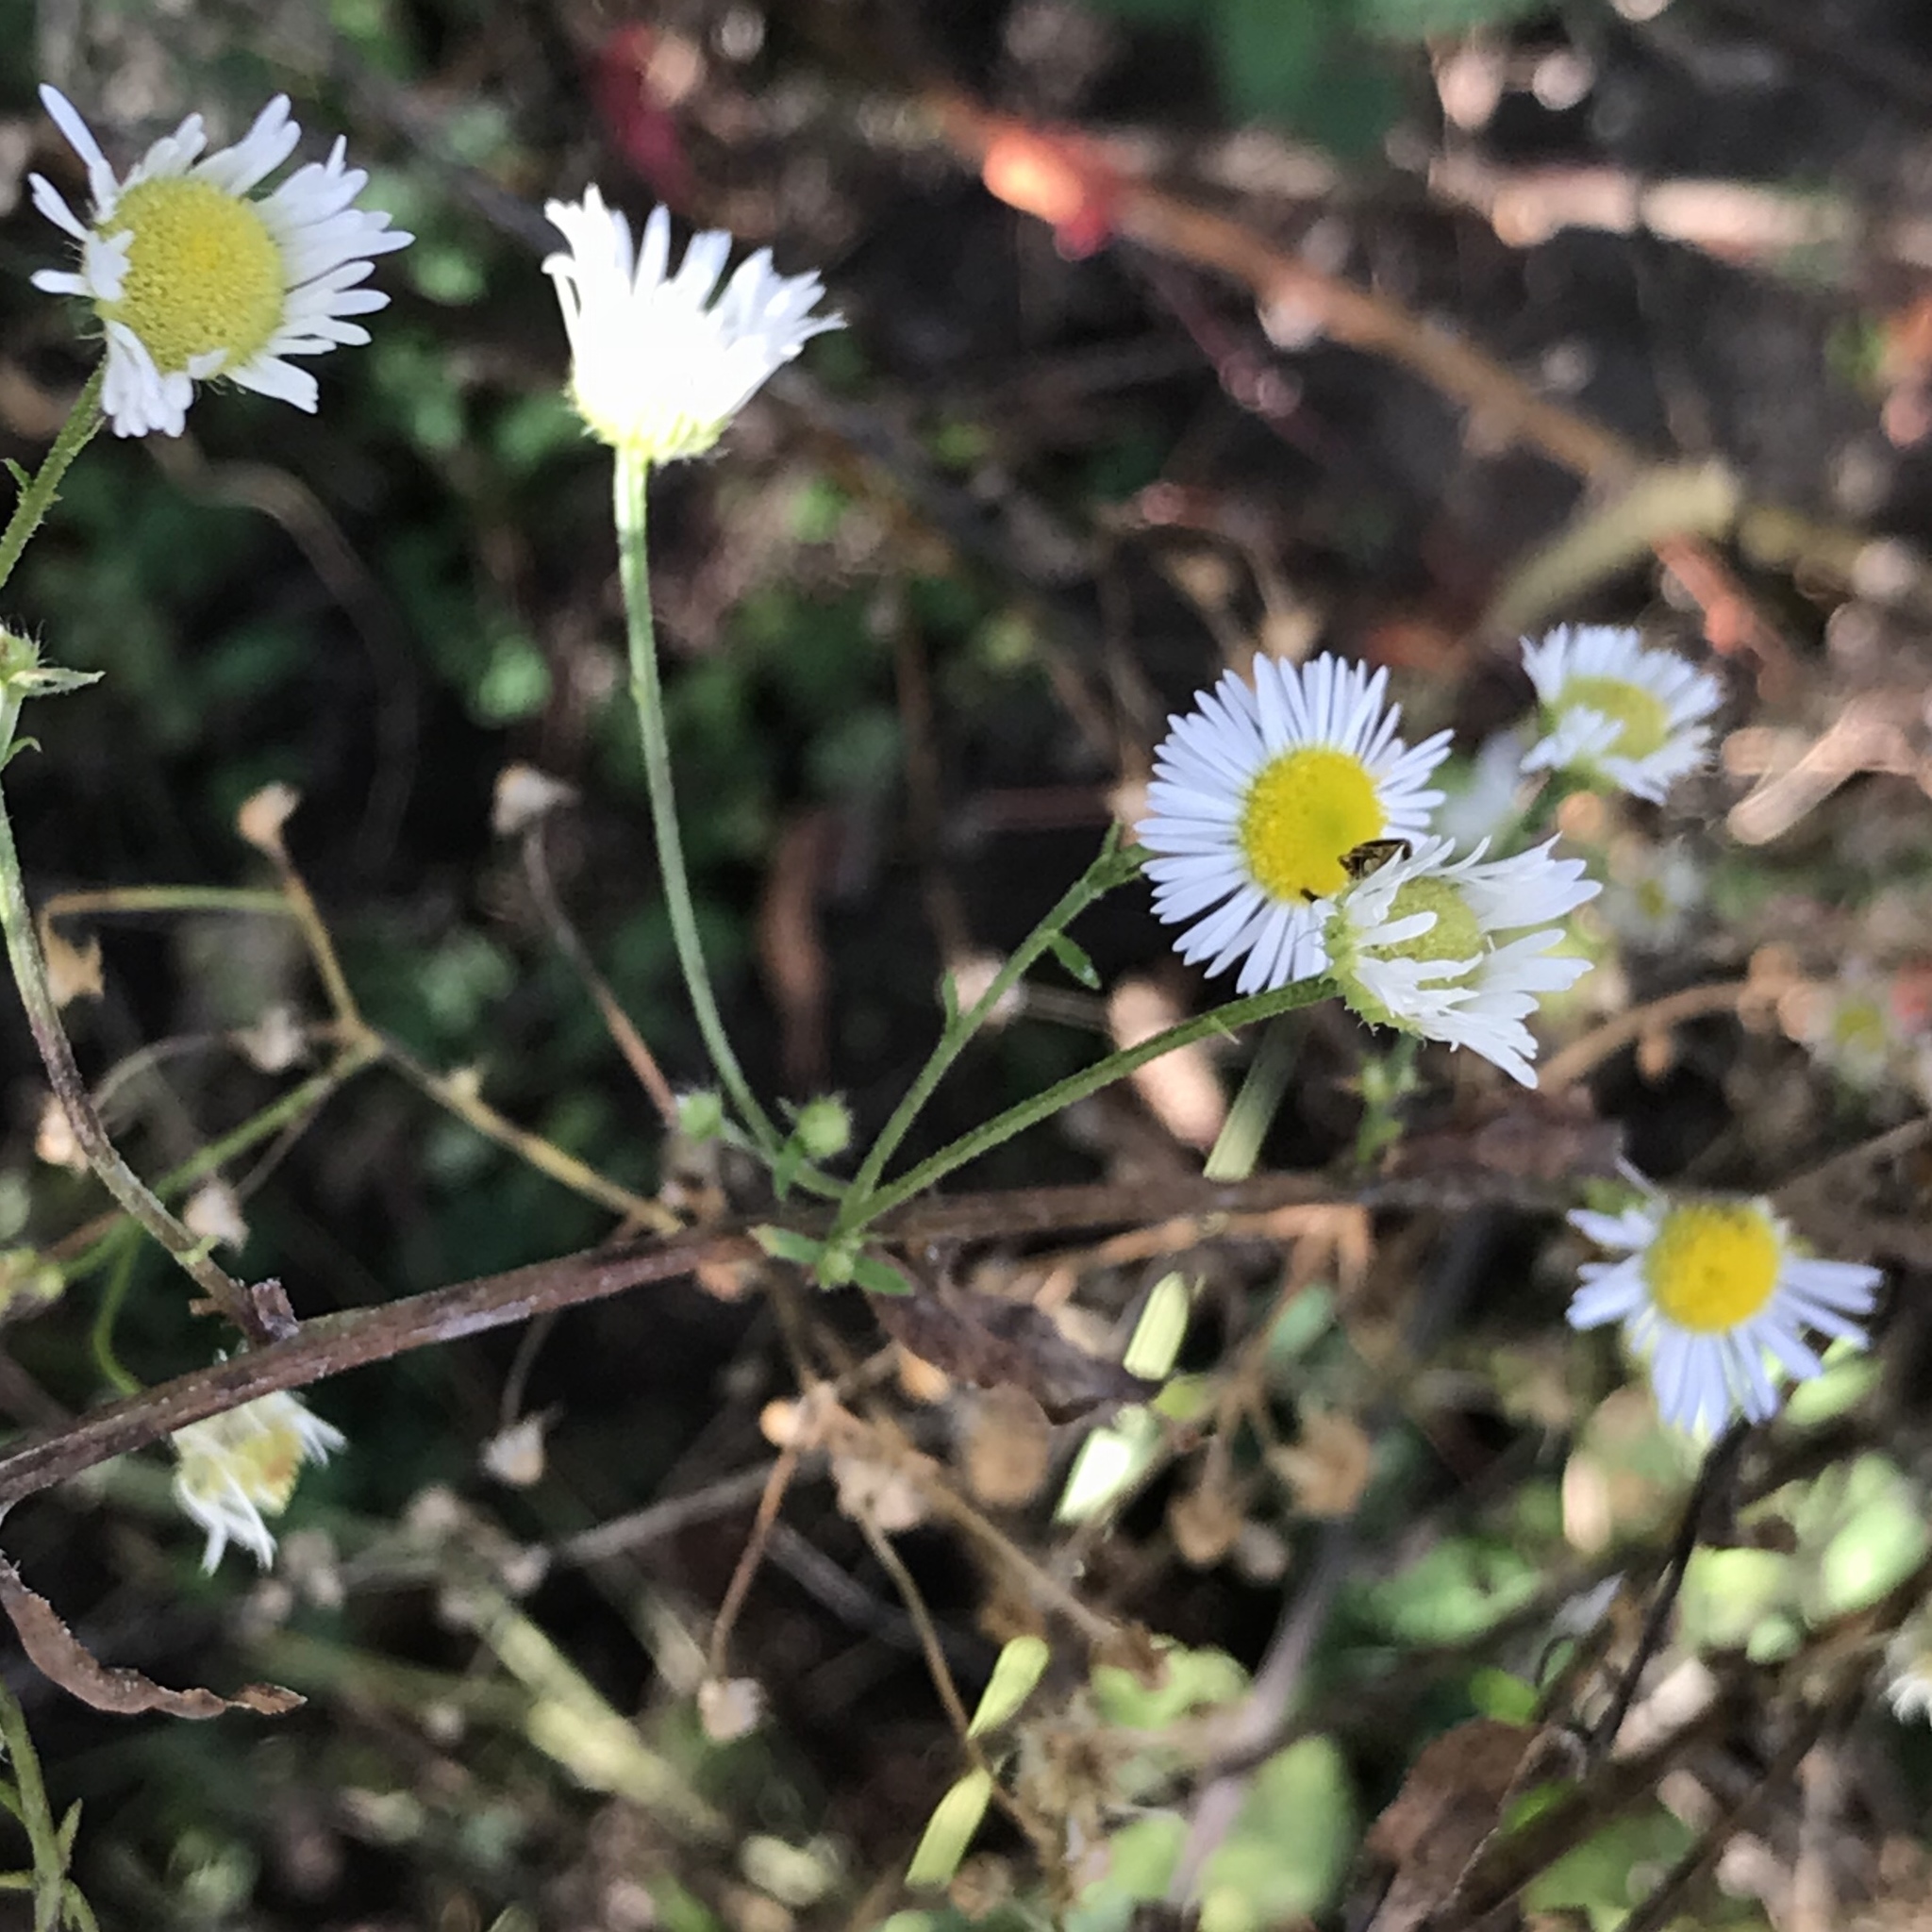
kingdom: Plantae
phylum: Tracheophyta
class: Magnoliopsida
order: Asterales
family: Asteraceae
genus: Erigeron
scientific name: Erigeron strigosus
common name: Common eastern fleabane
